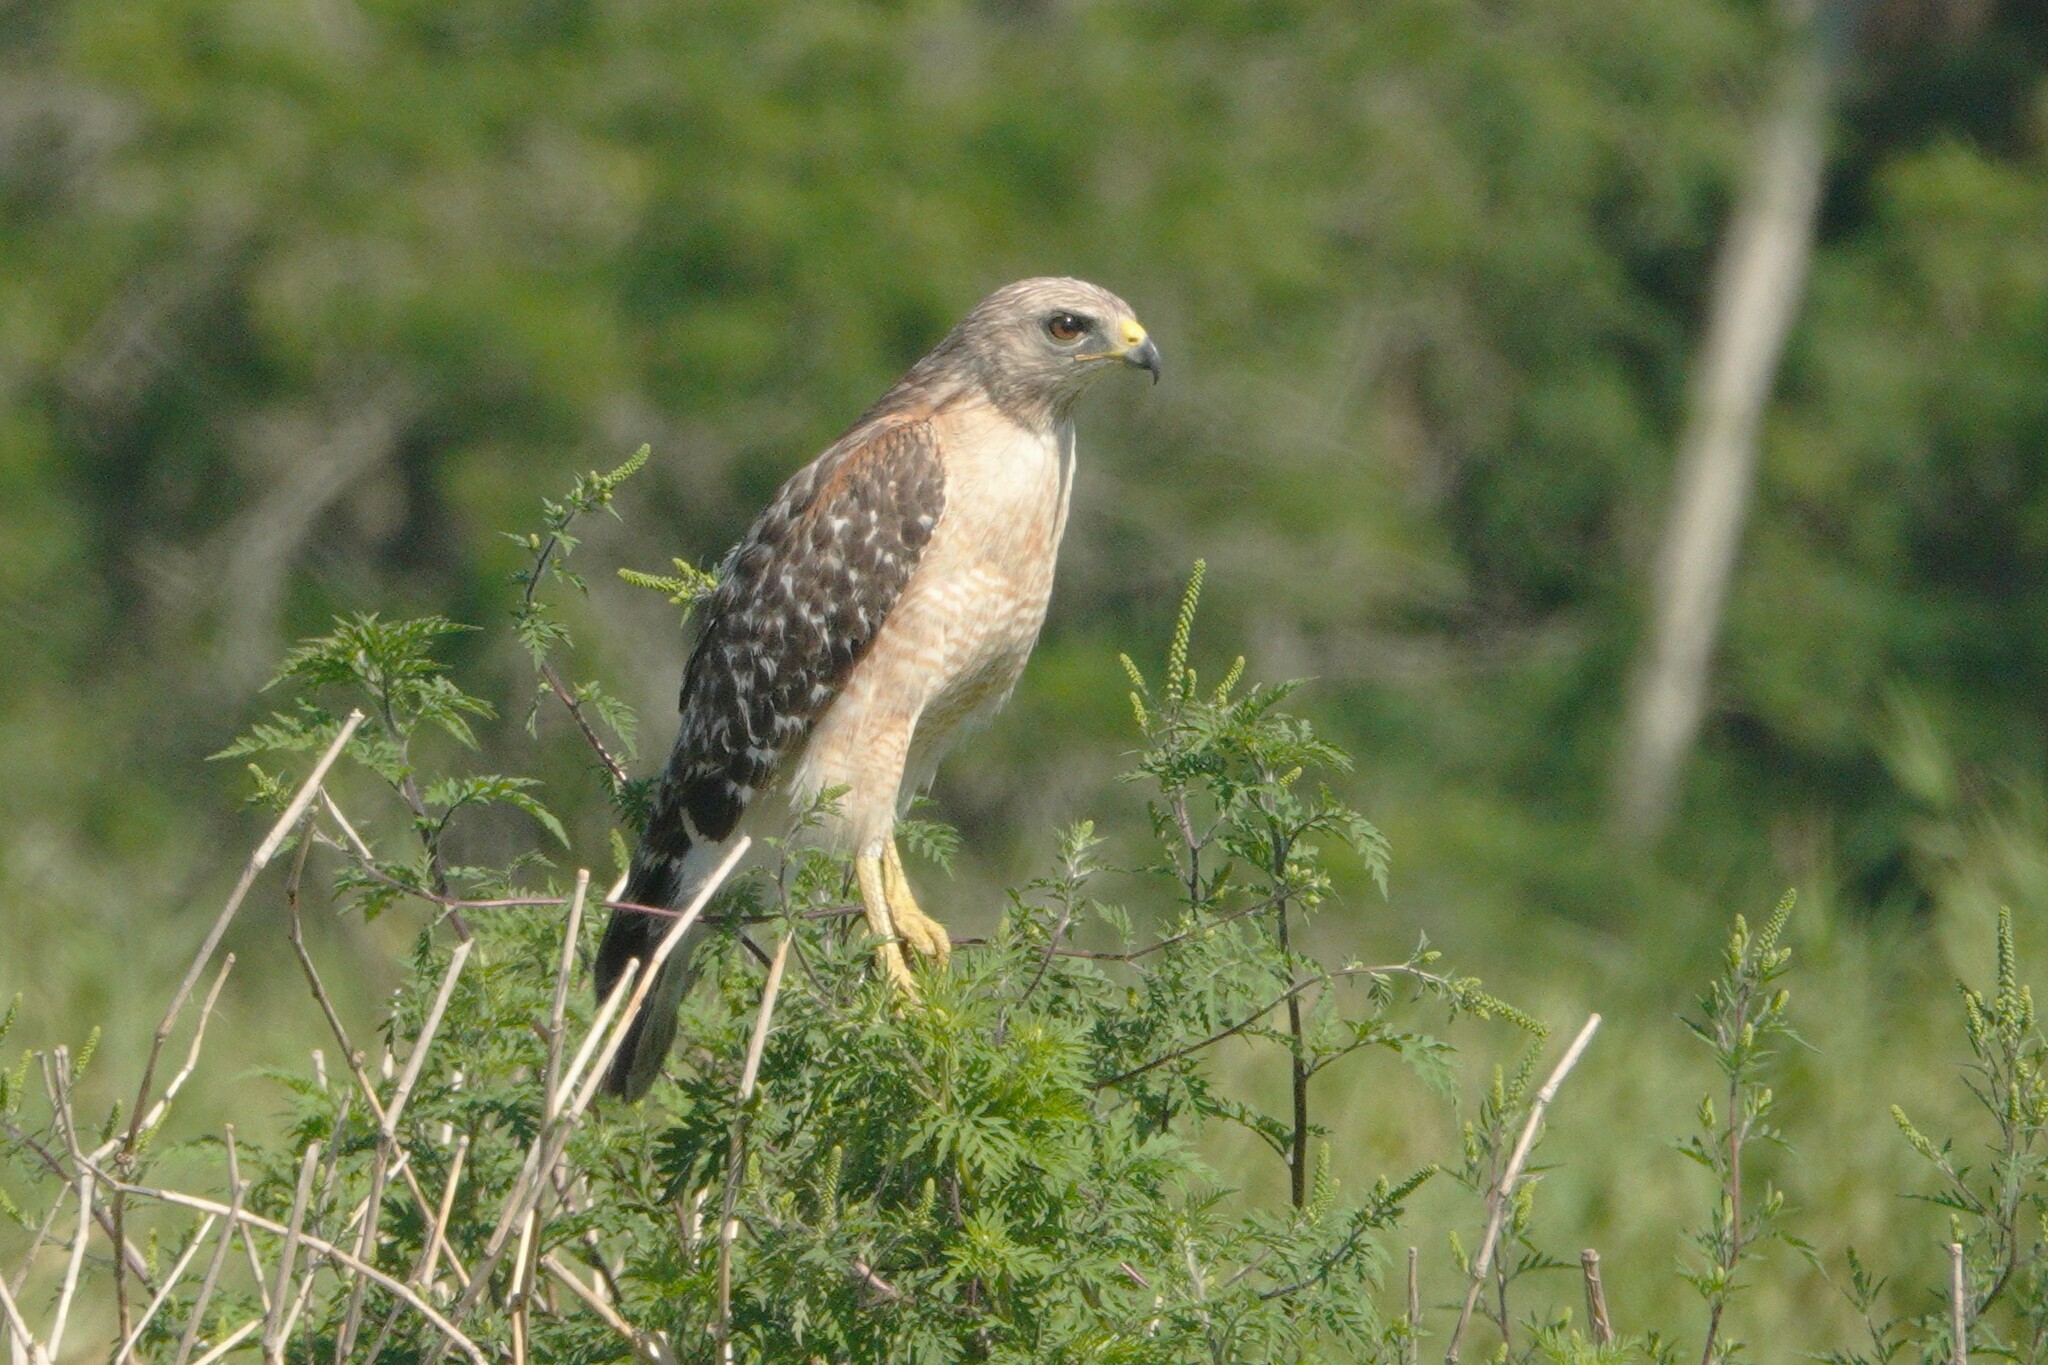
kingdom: Animalia
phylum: Chordata
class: Aves
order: Accipitriformes
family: Accipitridae
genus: Buteo
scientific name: Buteo lineatus
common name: Red-shouldered hawk
